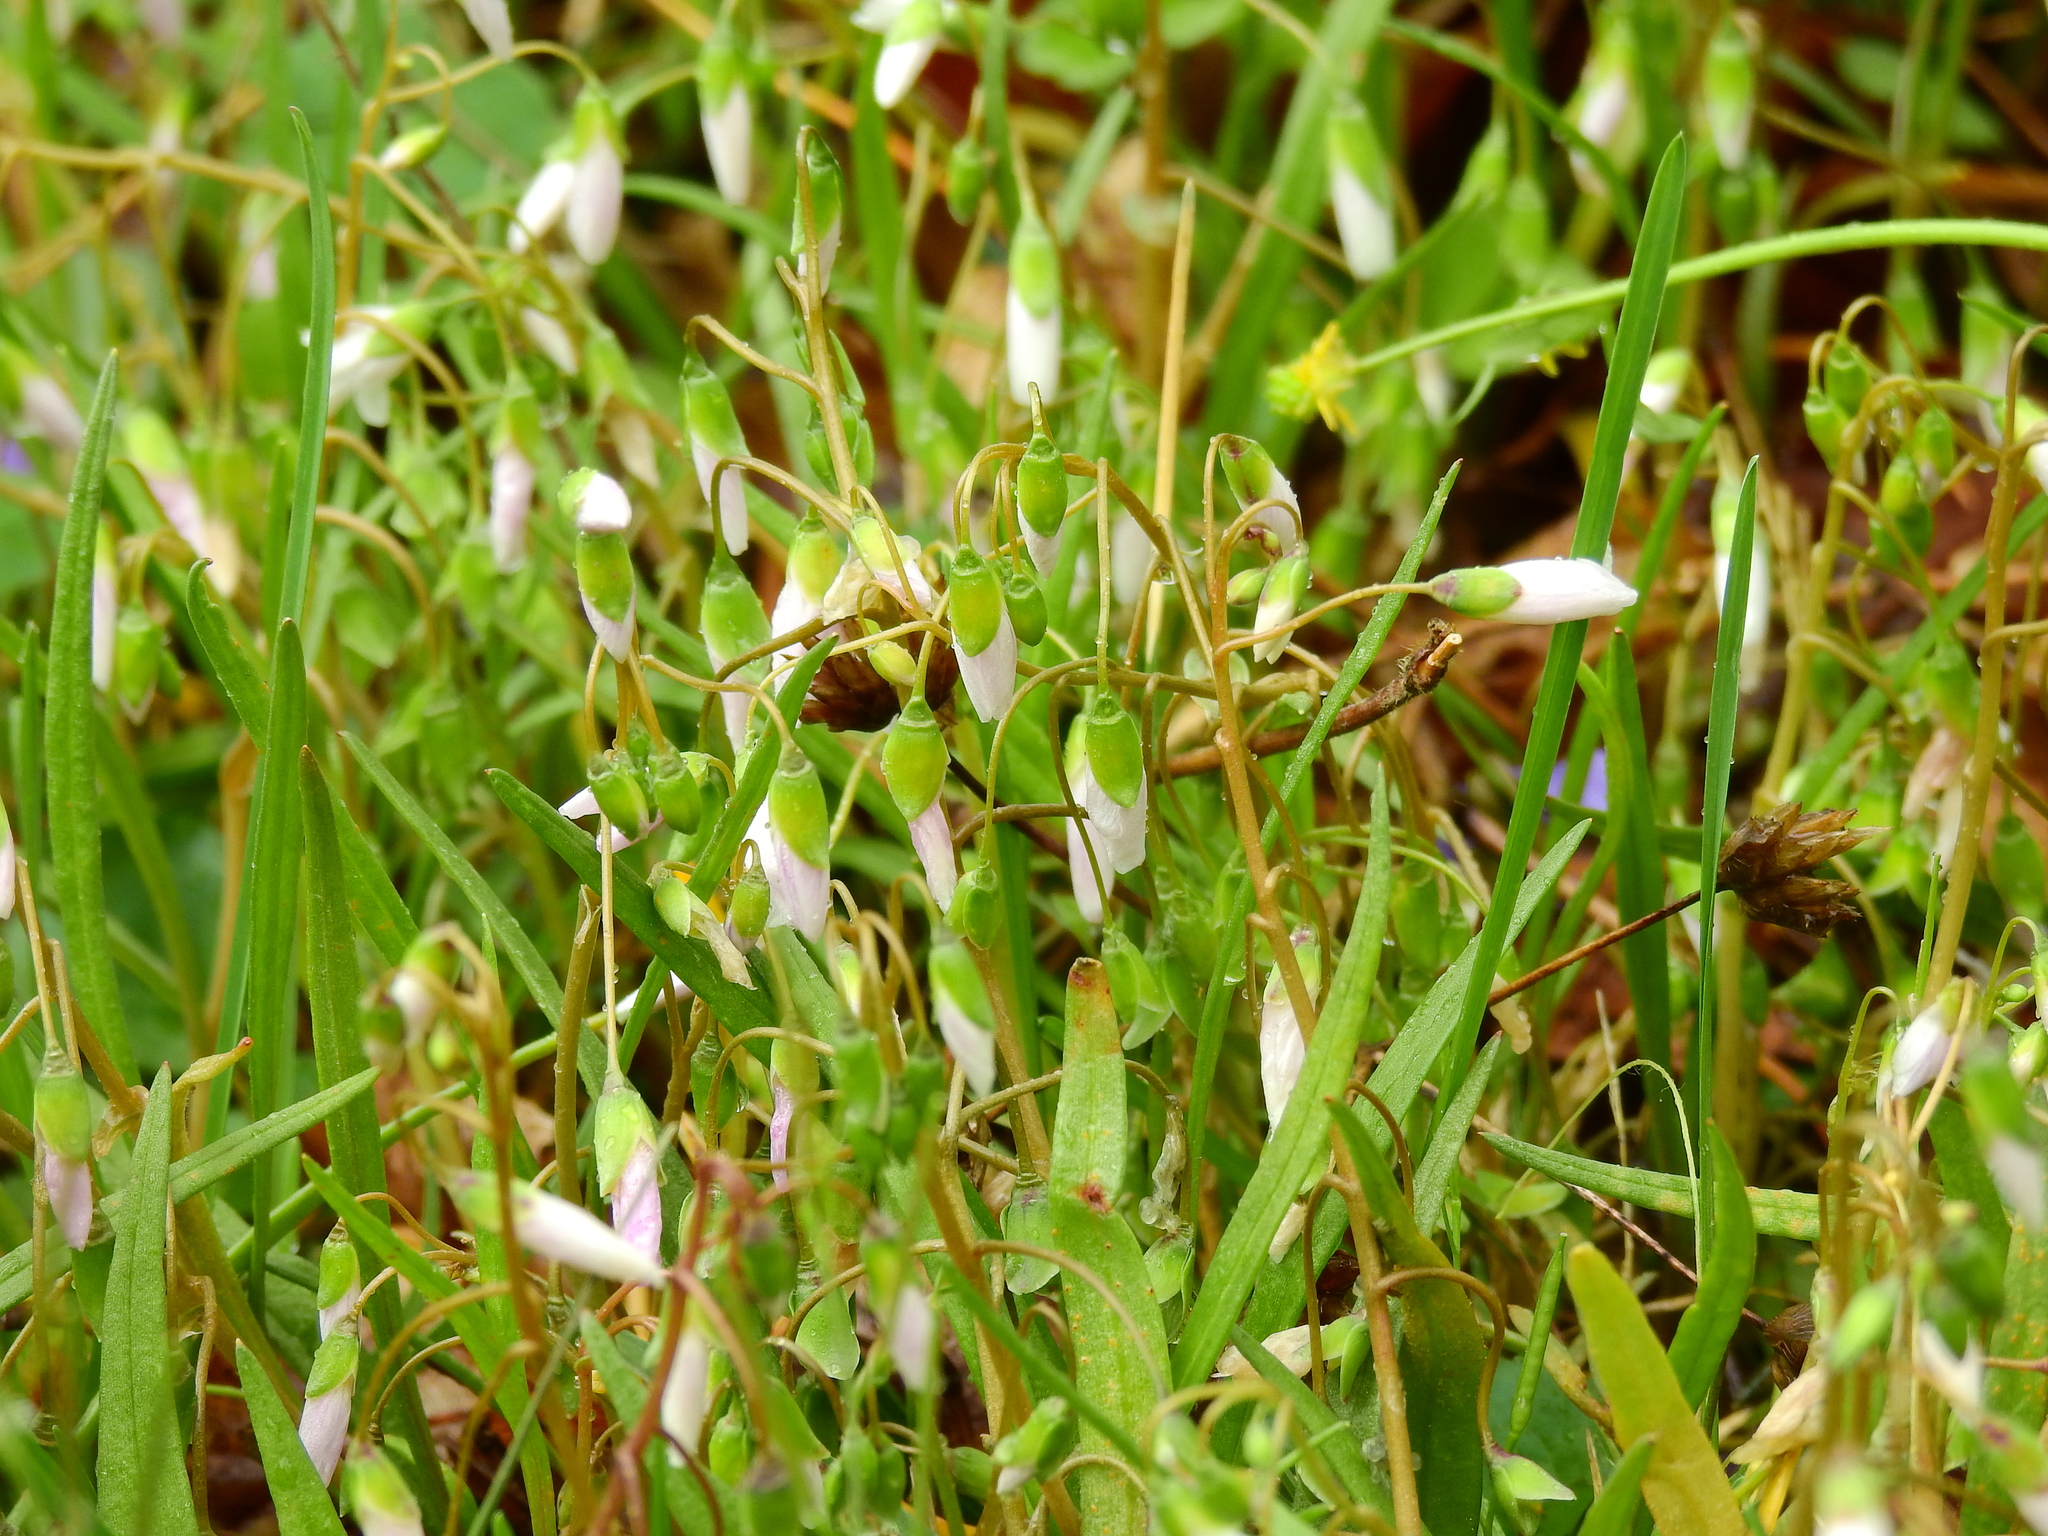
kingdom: Plantae
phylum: Tracheophyta
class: Magnoliopsida
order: Caryophyllales
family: Montiaceae
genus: Claytonia
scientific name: Claytonia virginica
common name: Virginia springbeauty
